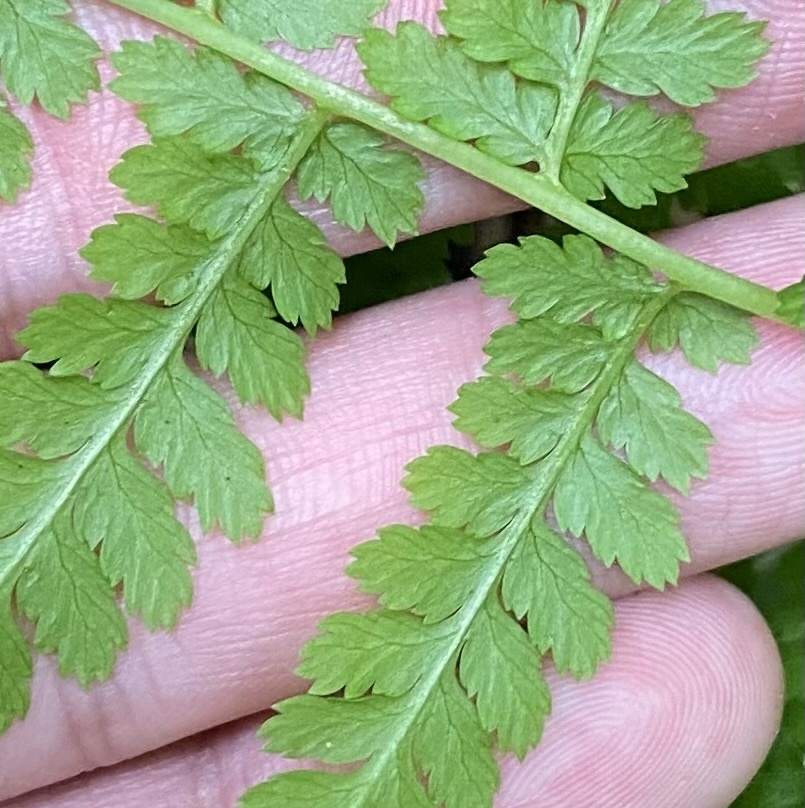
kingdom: Plantae
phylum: Tracheophyta
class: Polypodiopsida
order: Polypodiales
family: Athyriaceae
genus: Athyrium
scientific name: Athyrium filix-femina
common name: Lady fern
